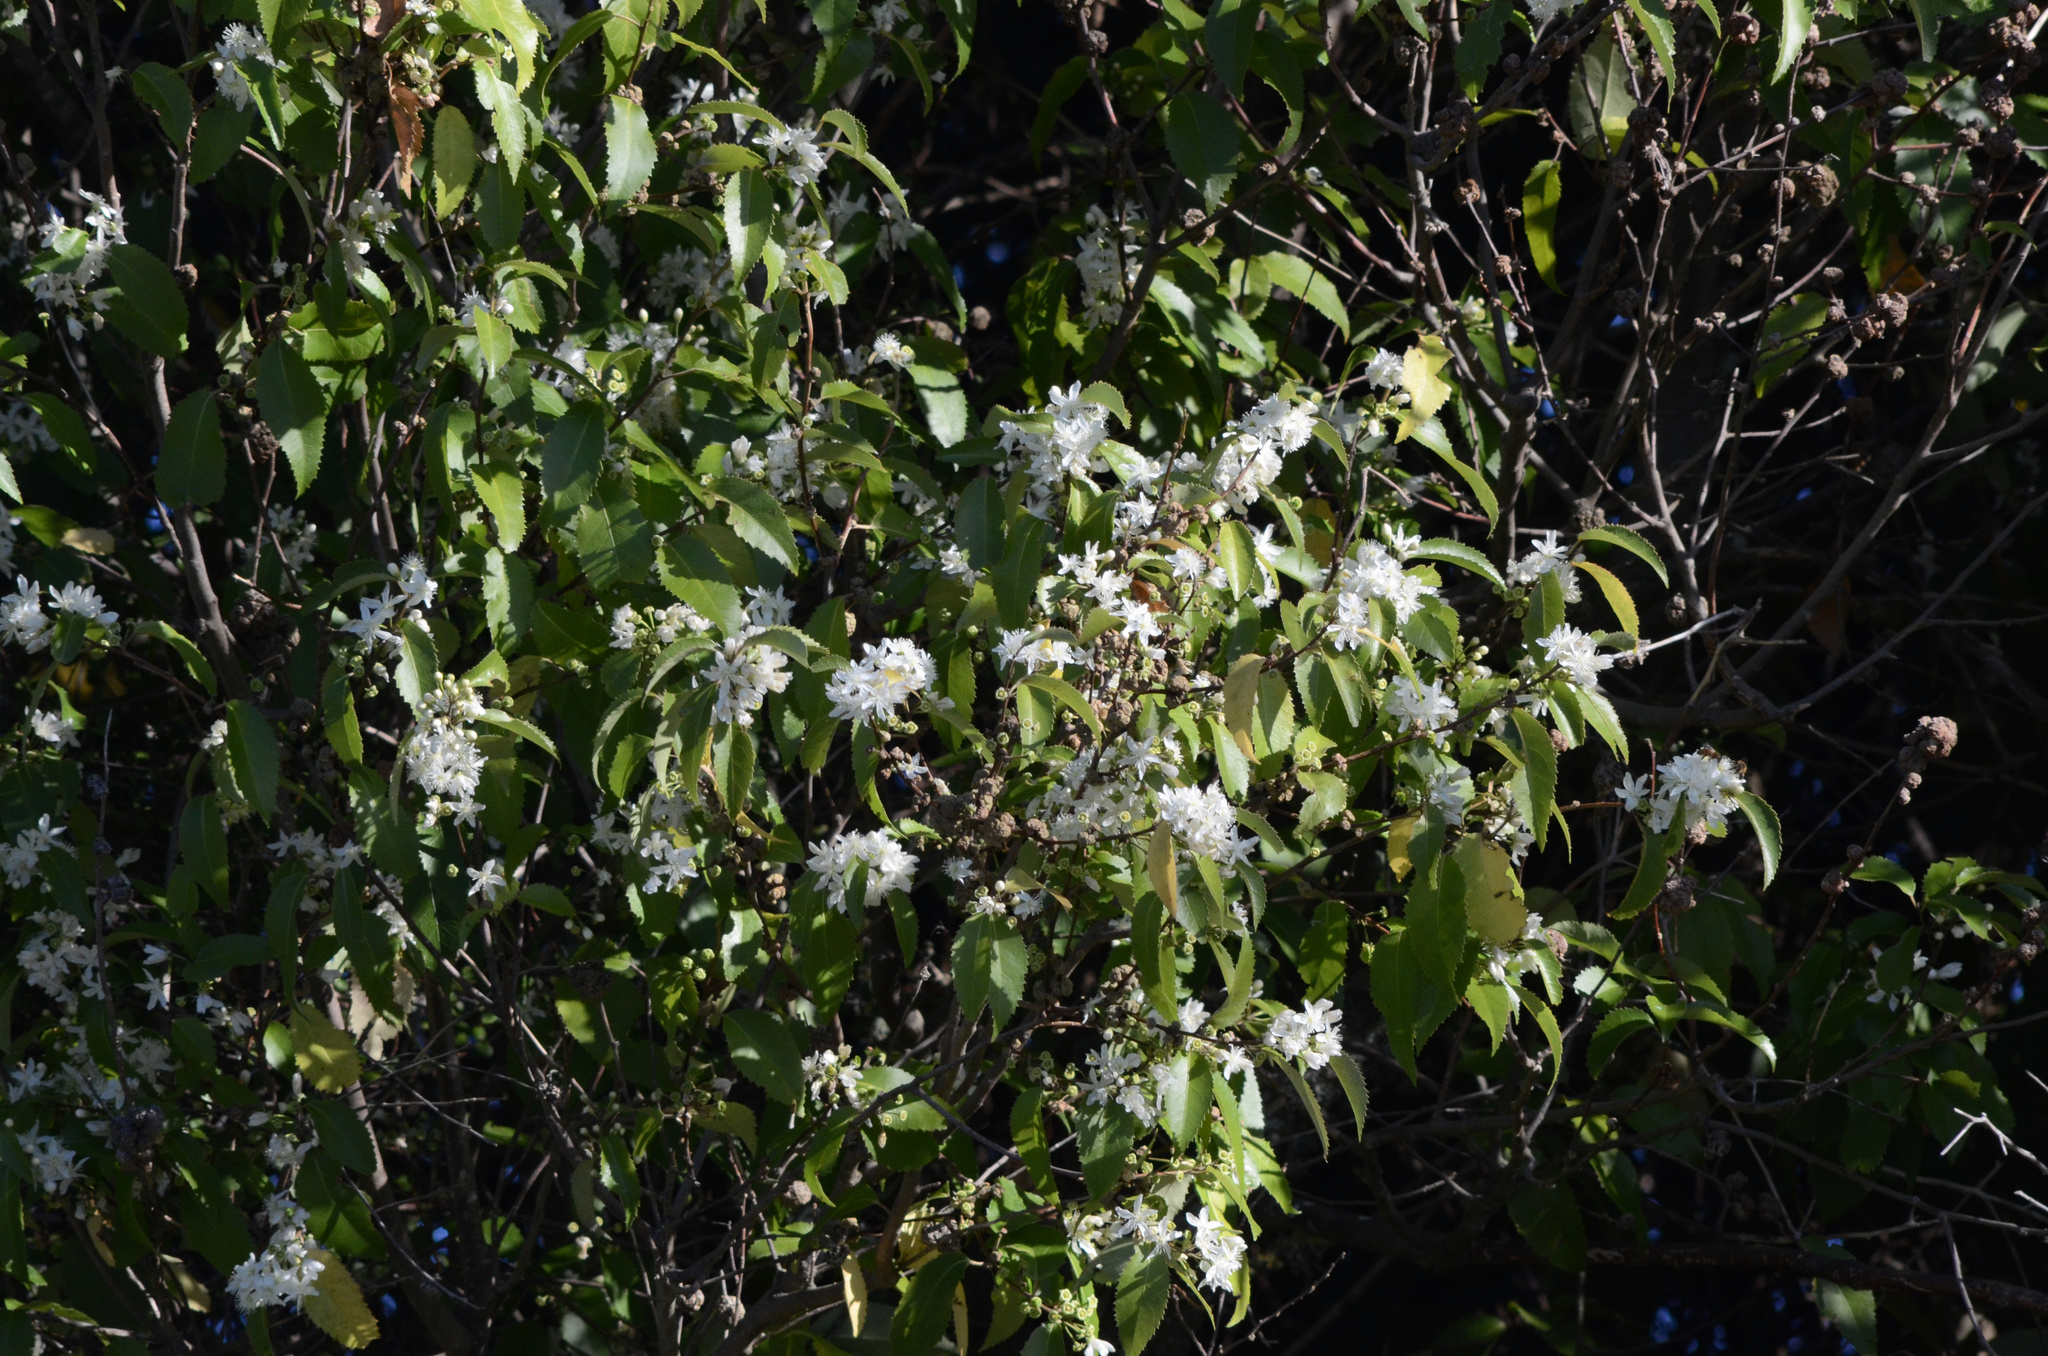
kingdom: Plantae
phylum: Tracheophyta
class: Magnoliopsida
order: Malvales
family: Malvaceae
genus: Hoheria
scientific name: Hoheria sexstylosa
